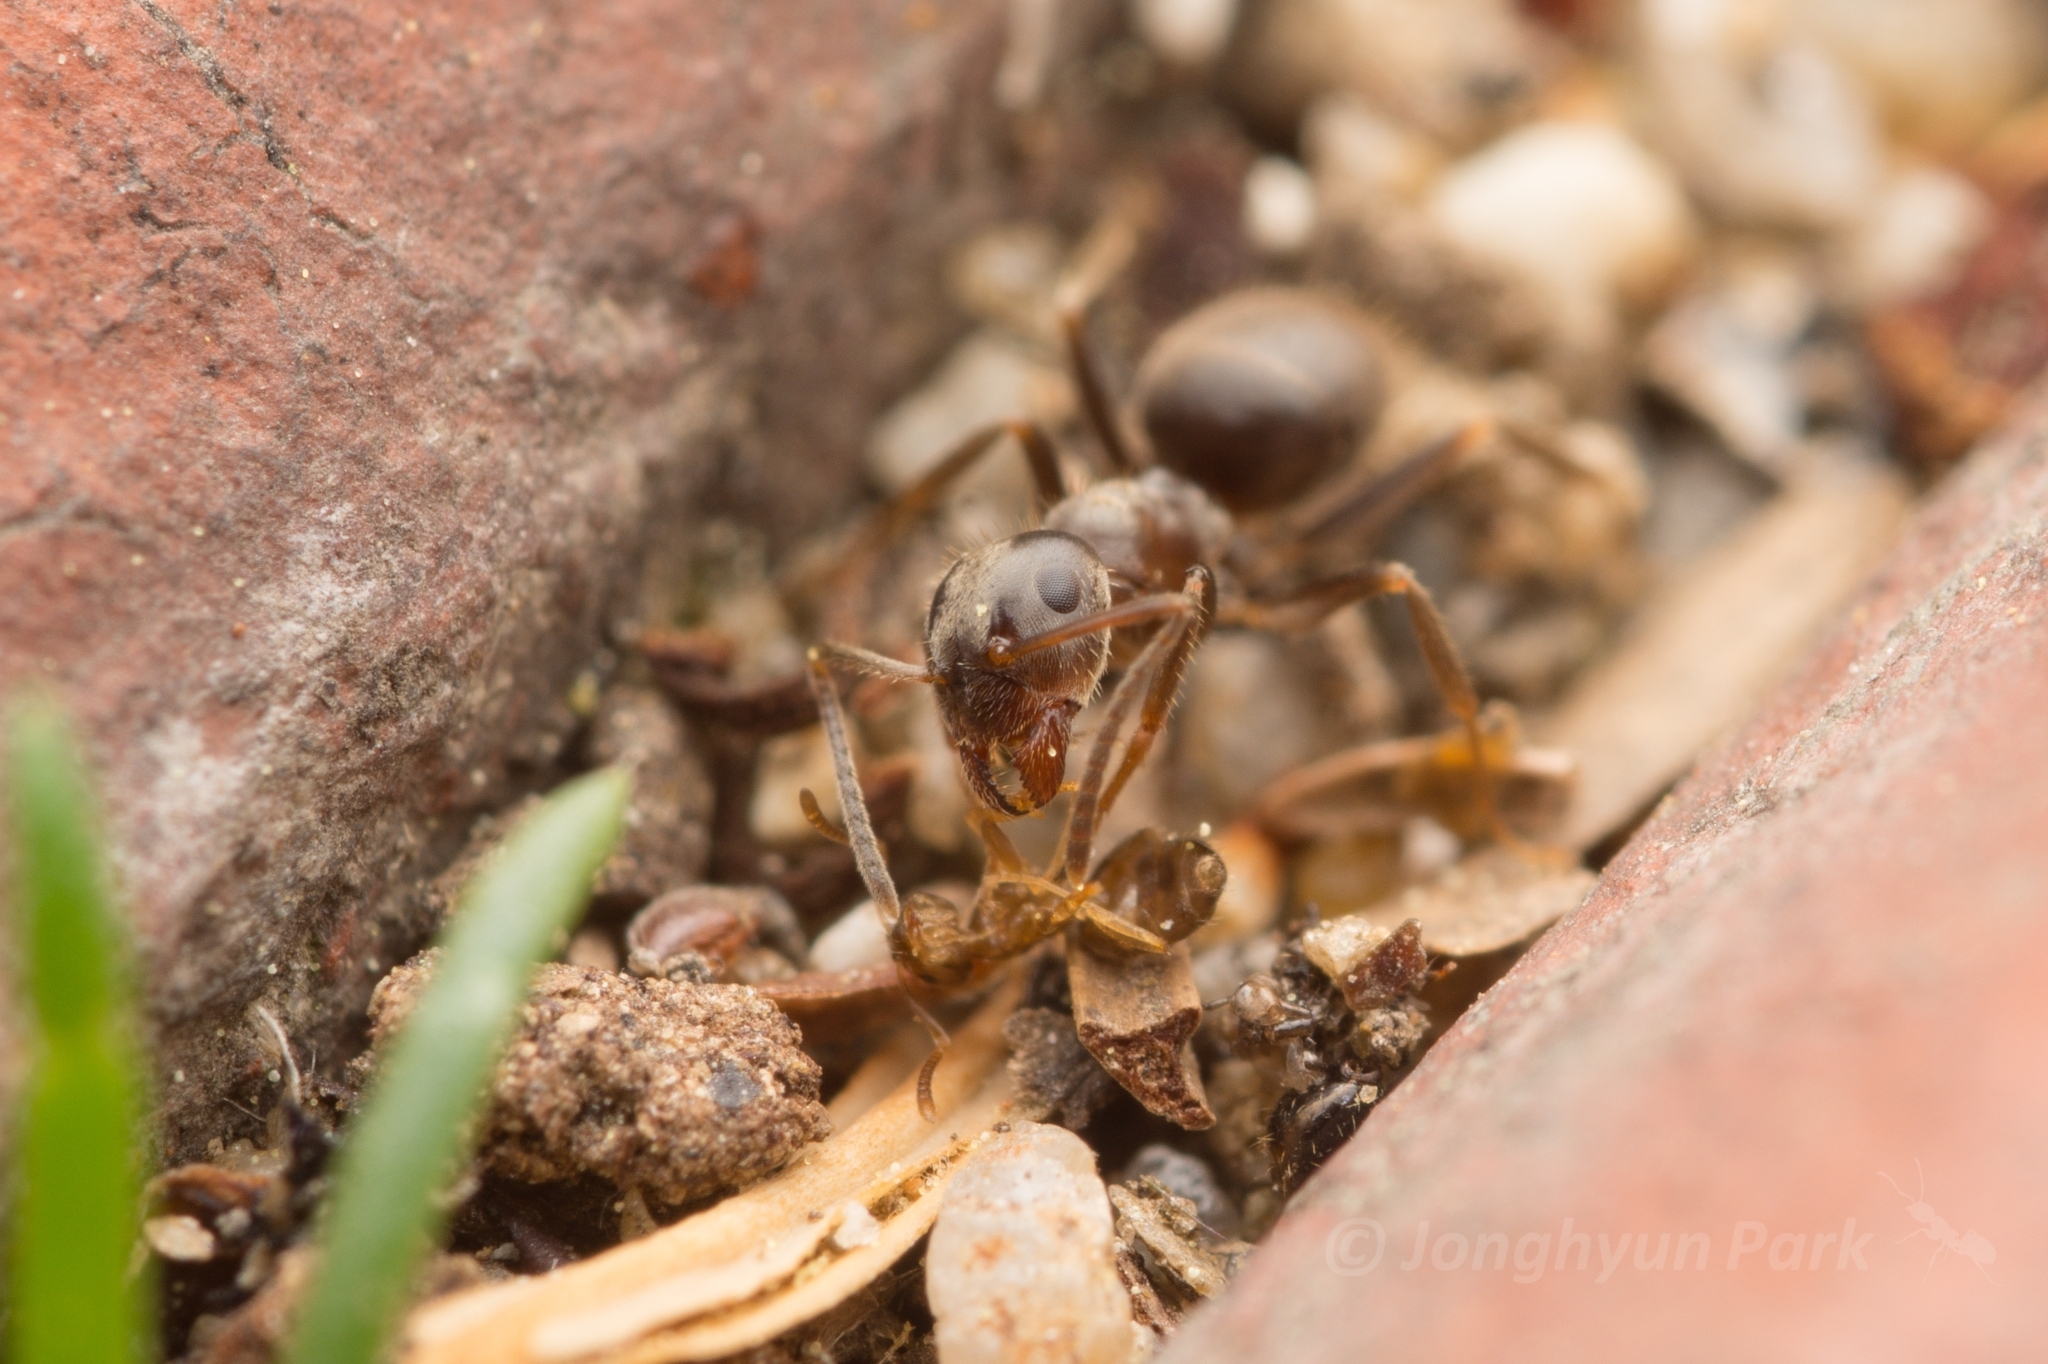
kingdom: Animalia
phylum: Arthropoda
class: Insecta
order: Hymenoptera
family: Formicidae
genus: Paraparatrechina
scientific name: Paraparatrechina
